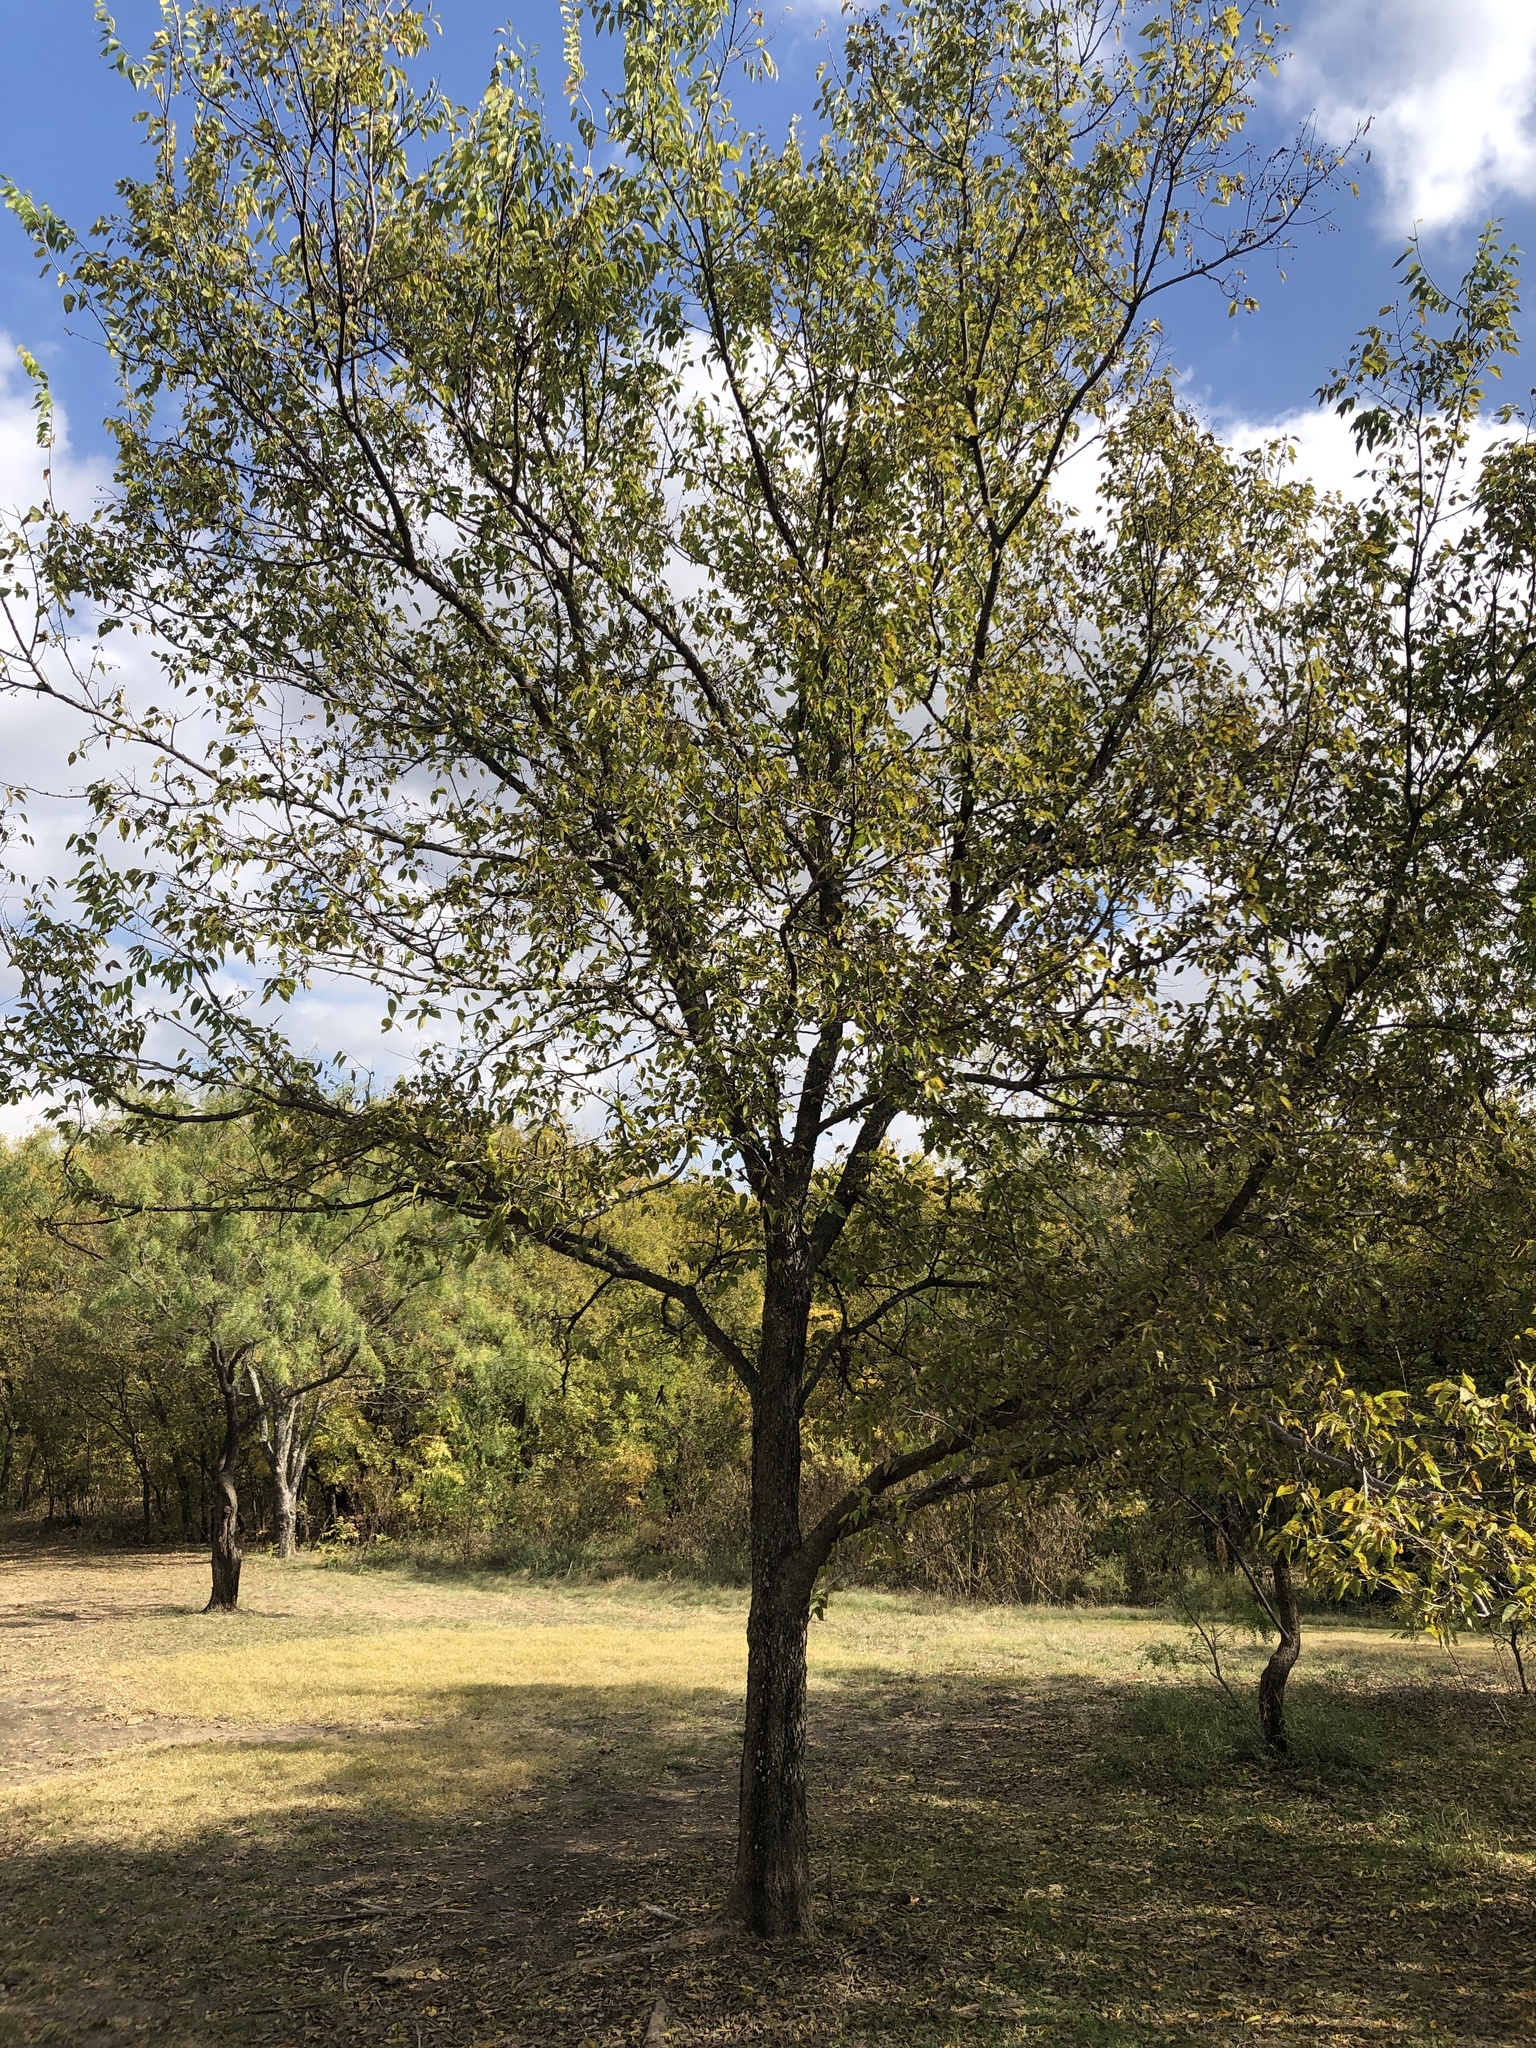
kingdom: Plantae
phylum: Tracheophyta
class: Magnoliopsida
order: Rosales
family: Cannabaceae
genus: Celtis
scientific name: Celtis laevigata
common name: Sugarberry
